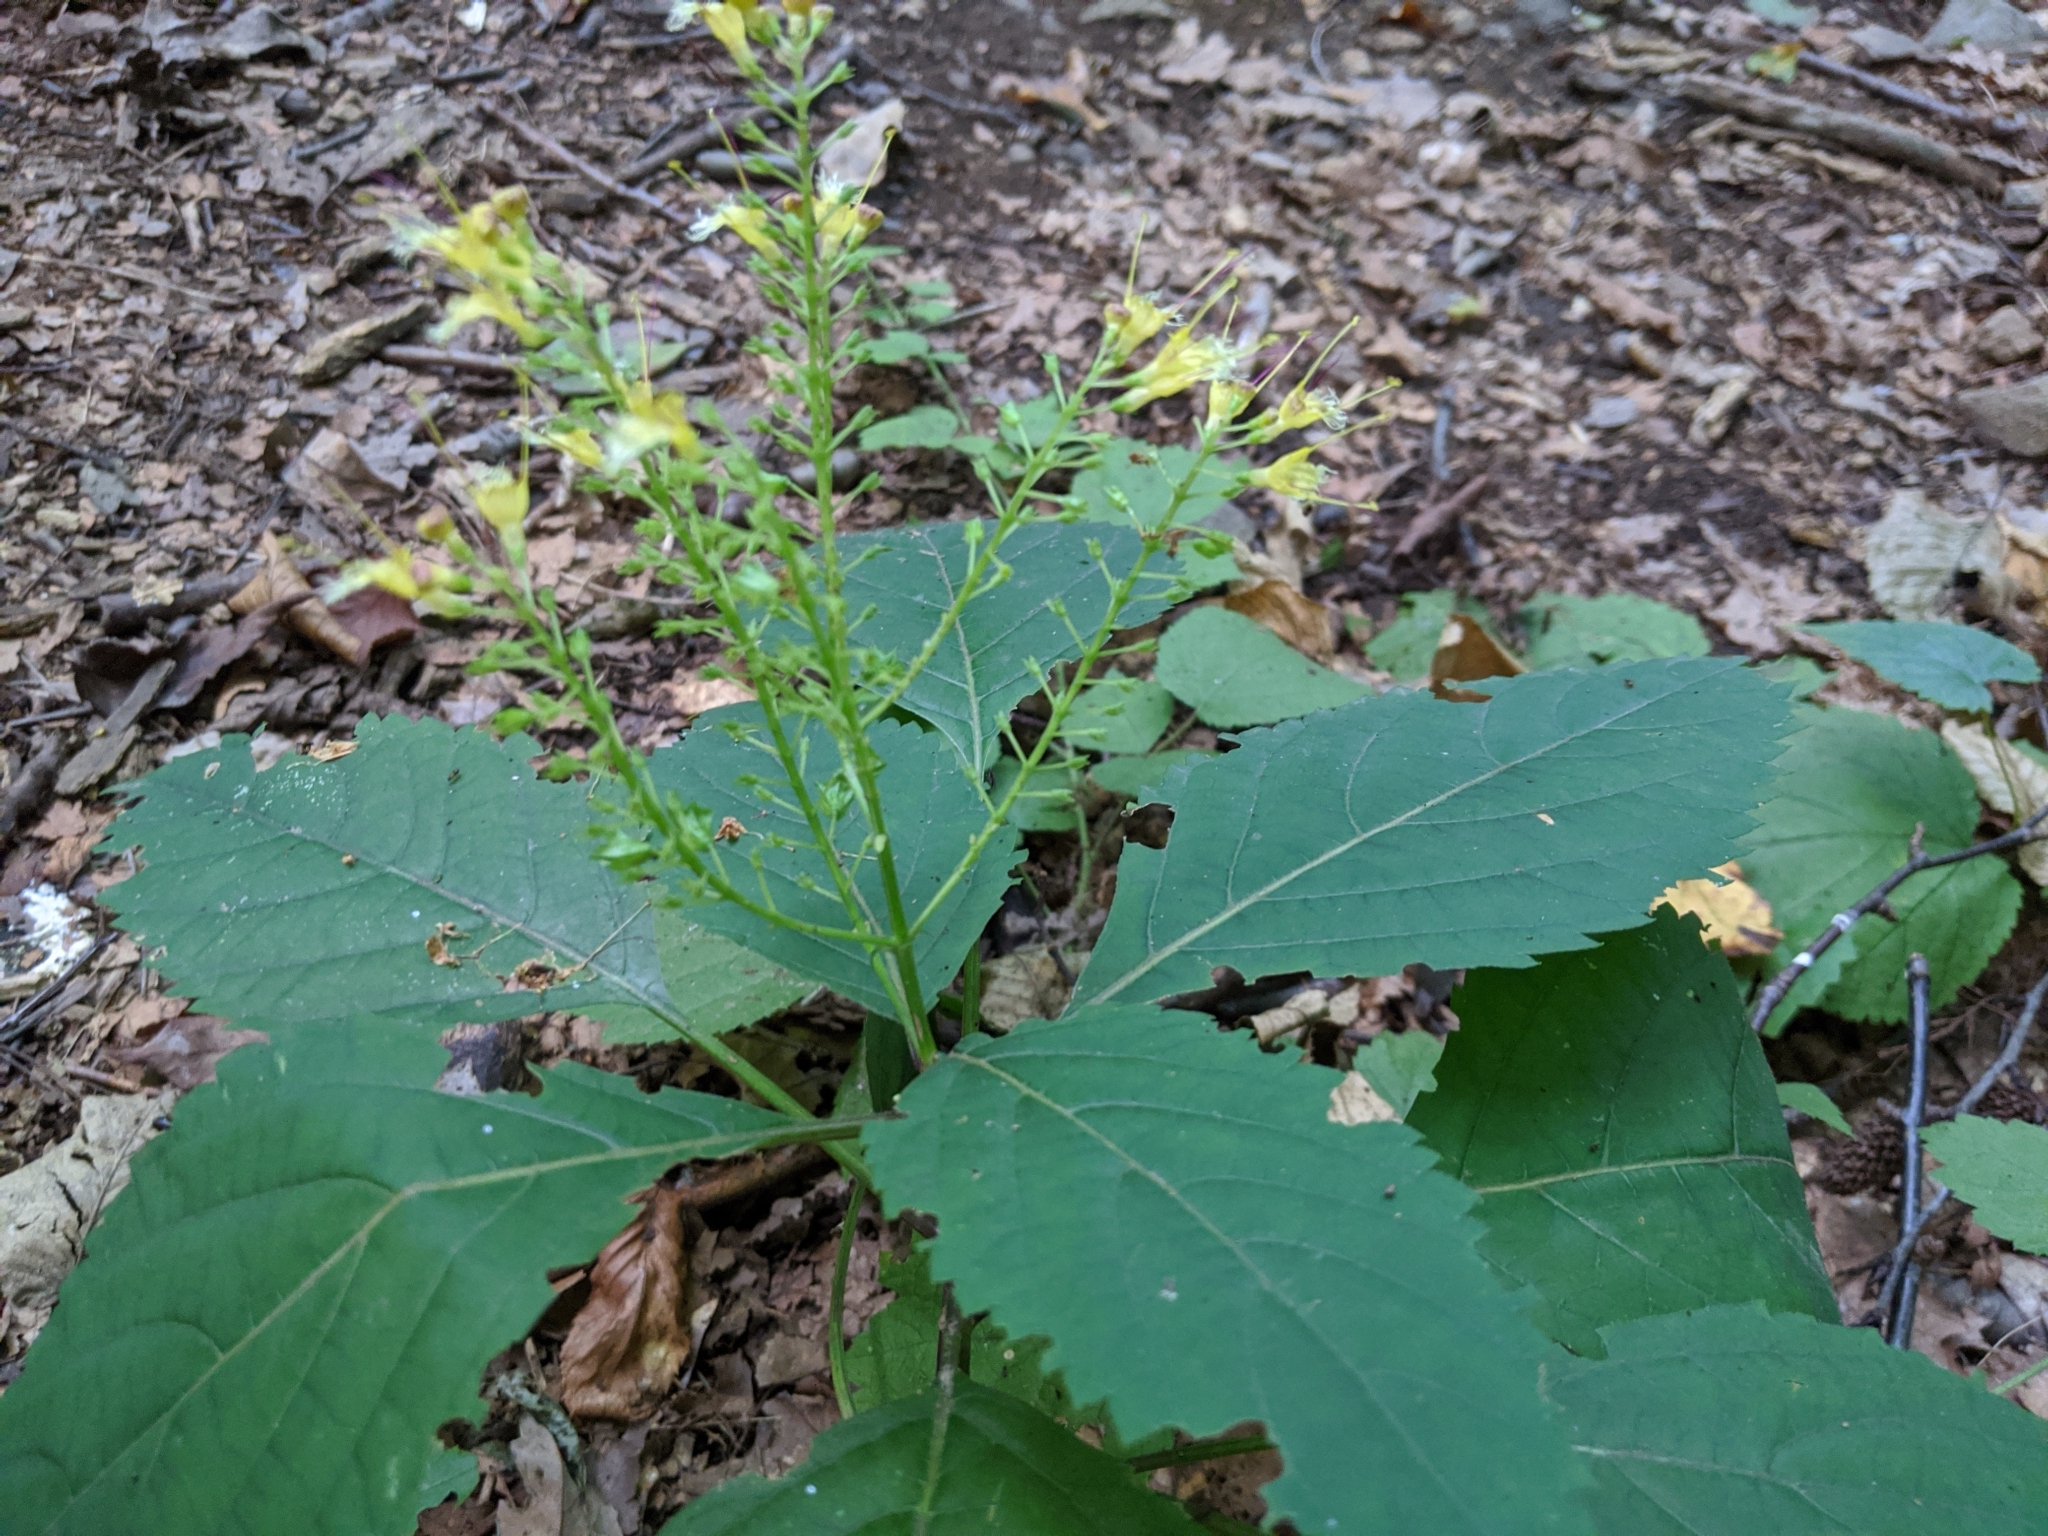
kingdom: Plantae
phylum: Tracheophyta
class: Magnoliopsida
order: Lamiales
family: Lamiaceae
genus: Collinsonia
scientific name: Collinsonia canadensis
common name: Northern horsebalm
